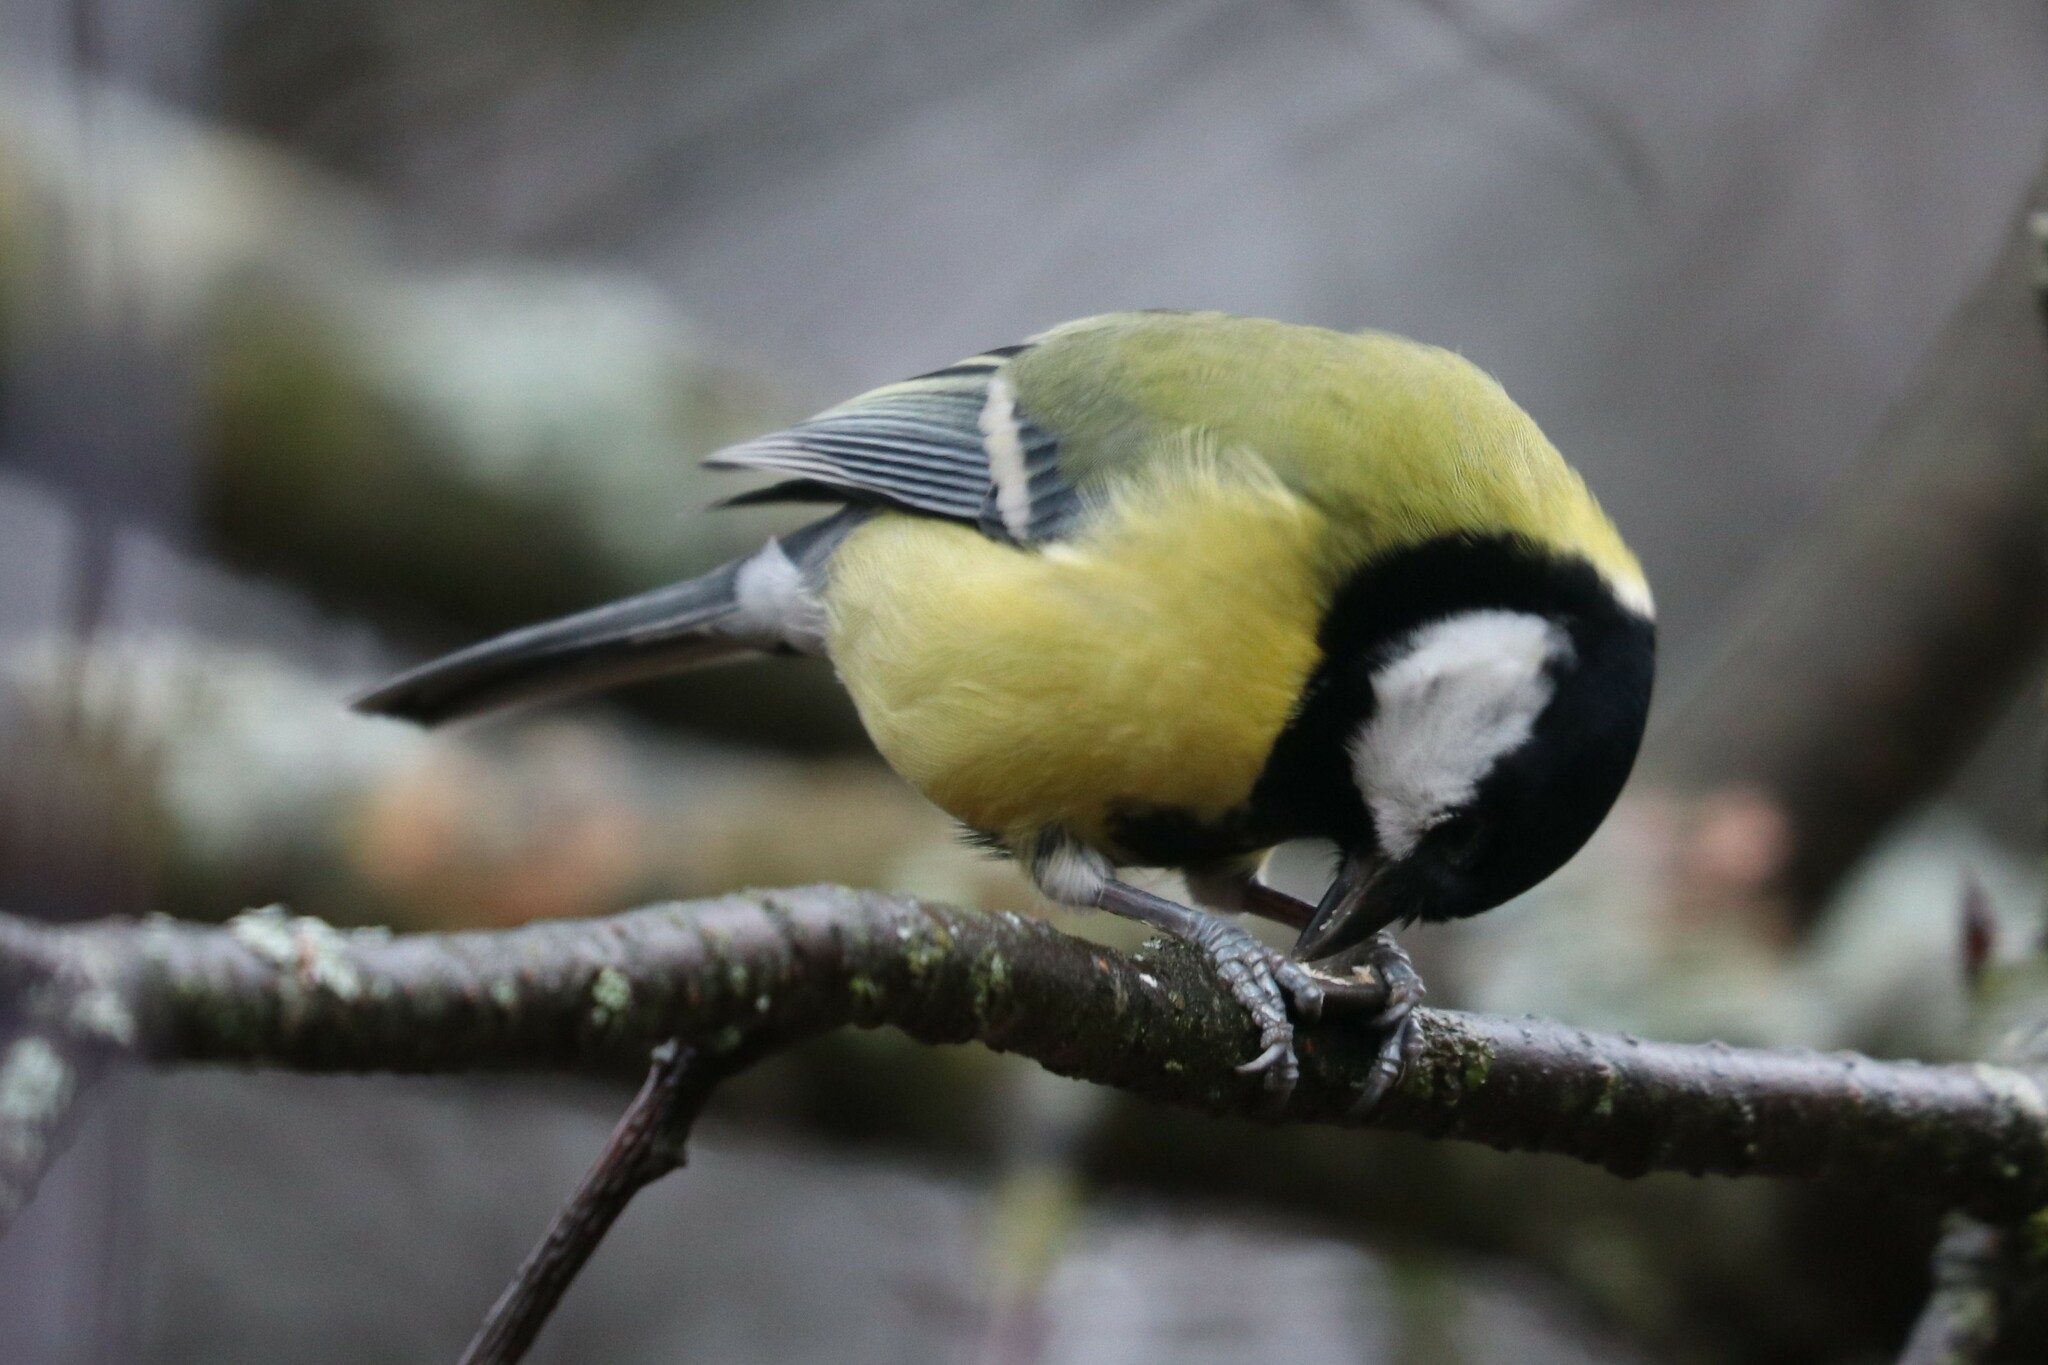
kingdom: Animalia
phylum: Chordata
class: Aves
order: Passeriformes
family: Paridae
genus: Parus
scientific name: Parus major
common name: Great tit
